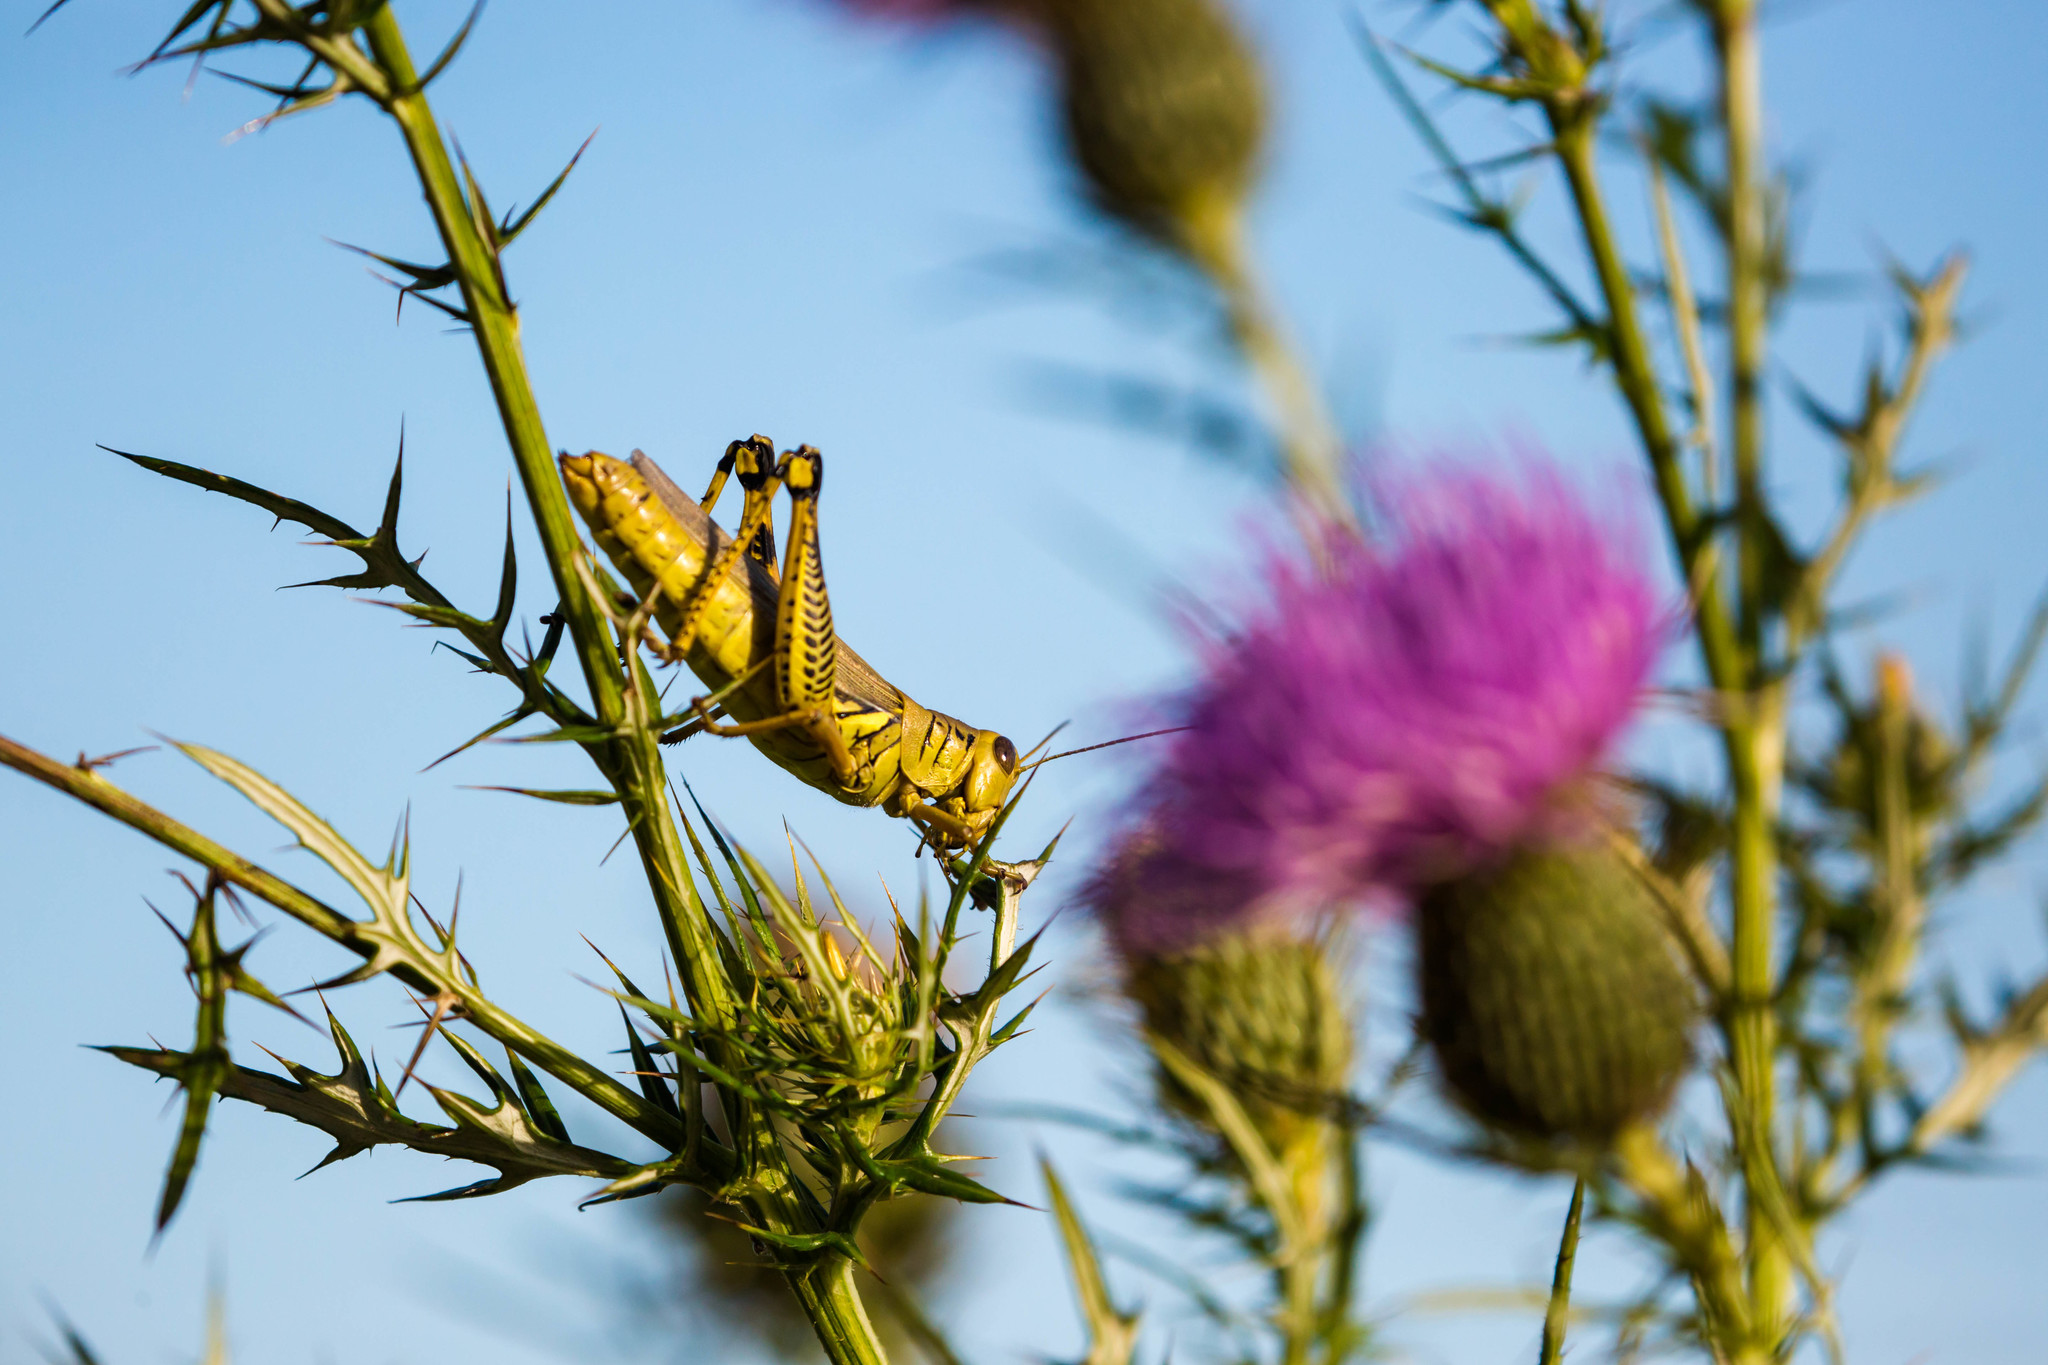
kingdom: Animalia
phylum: Arthropoda
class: Insecta
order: Orthoptera
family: Acrididae
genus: Melanoplus
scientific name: Melanoplus differentialis
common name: Differential grasshopper
